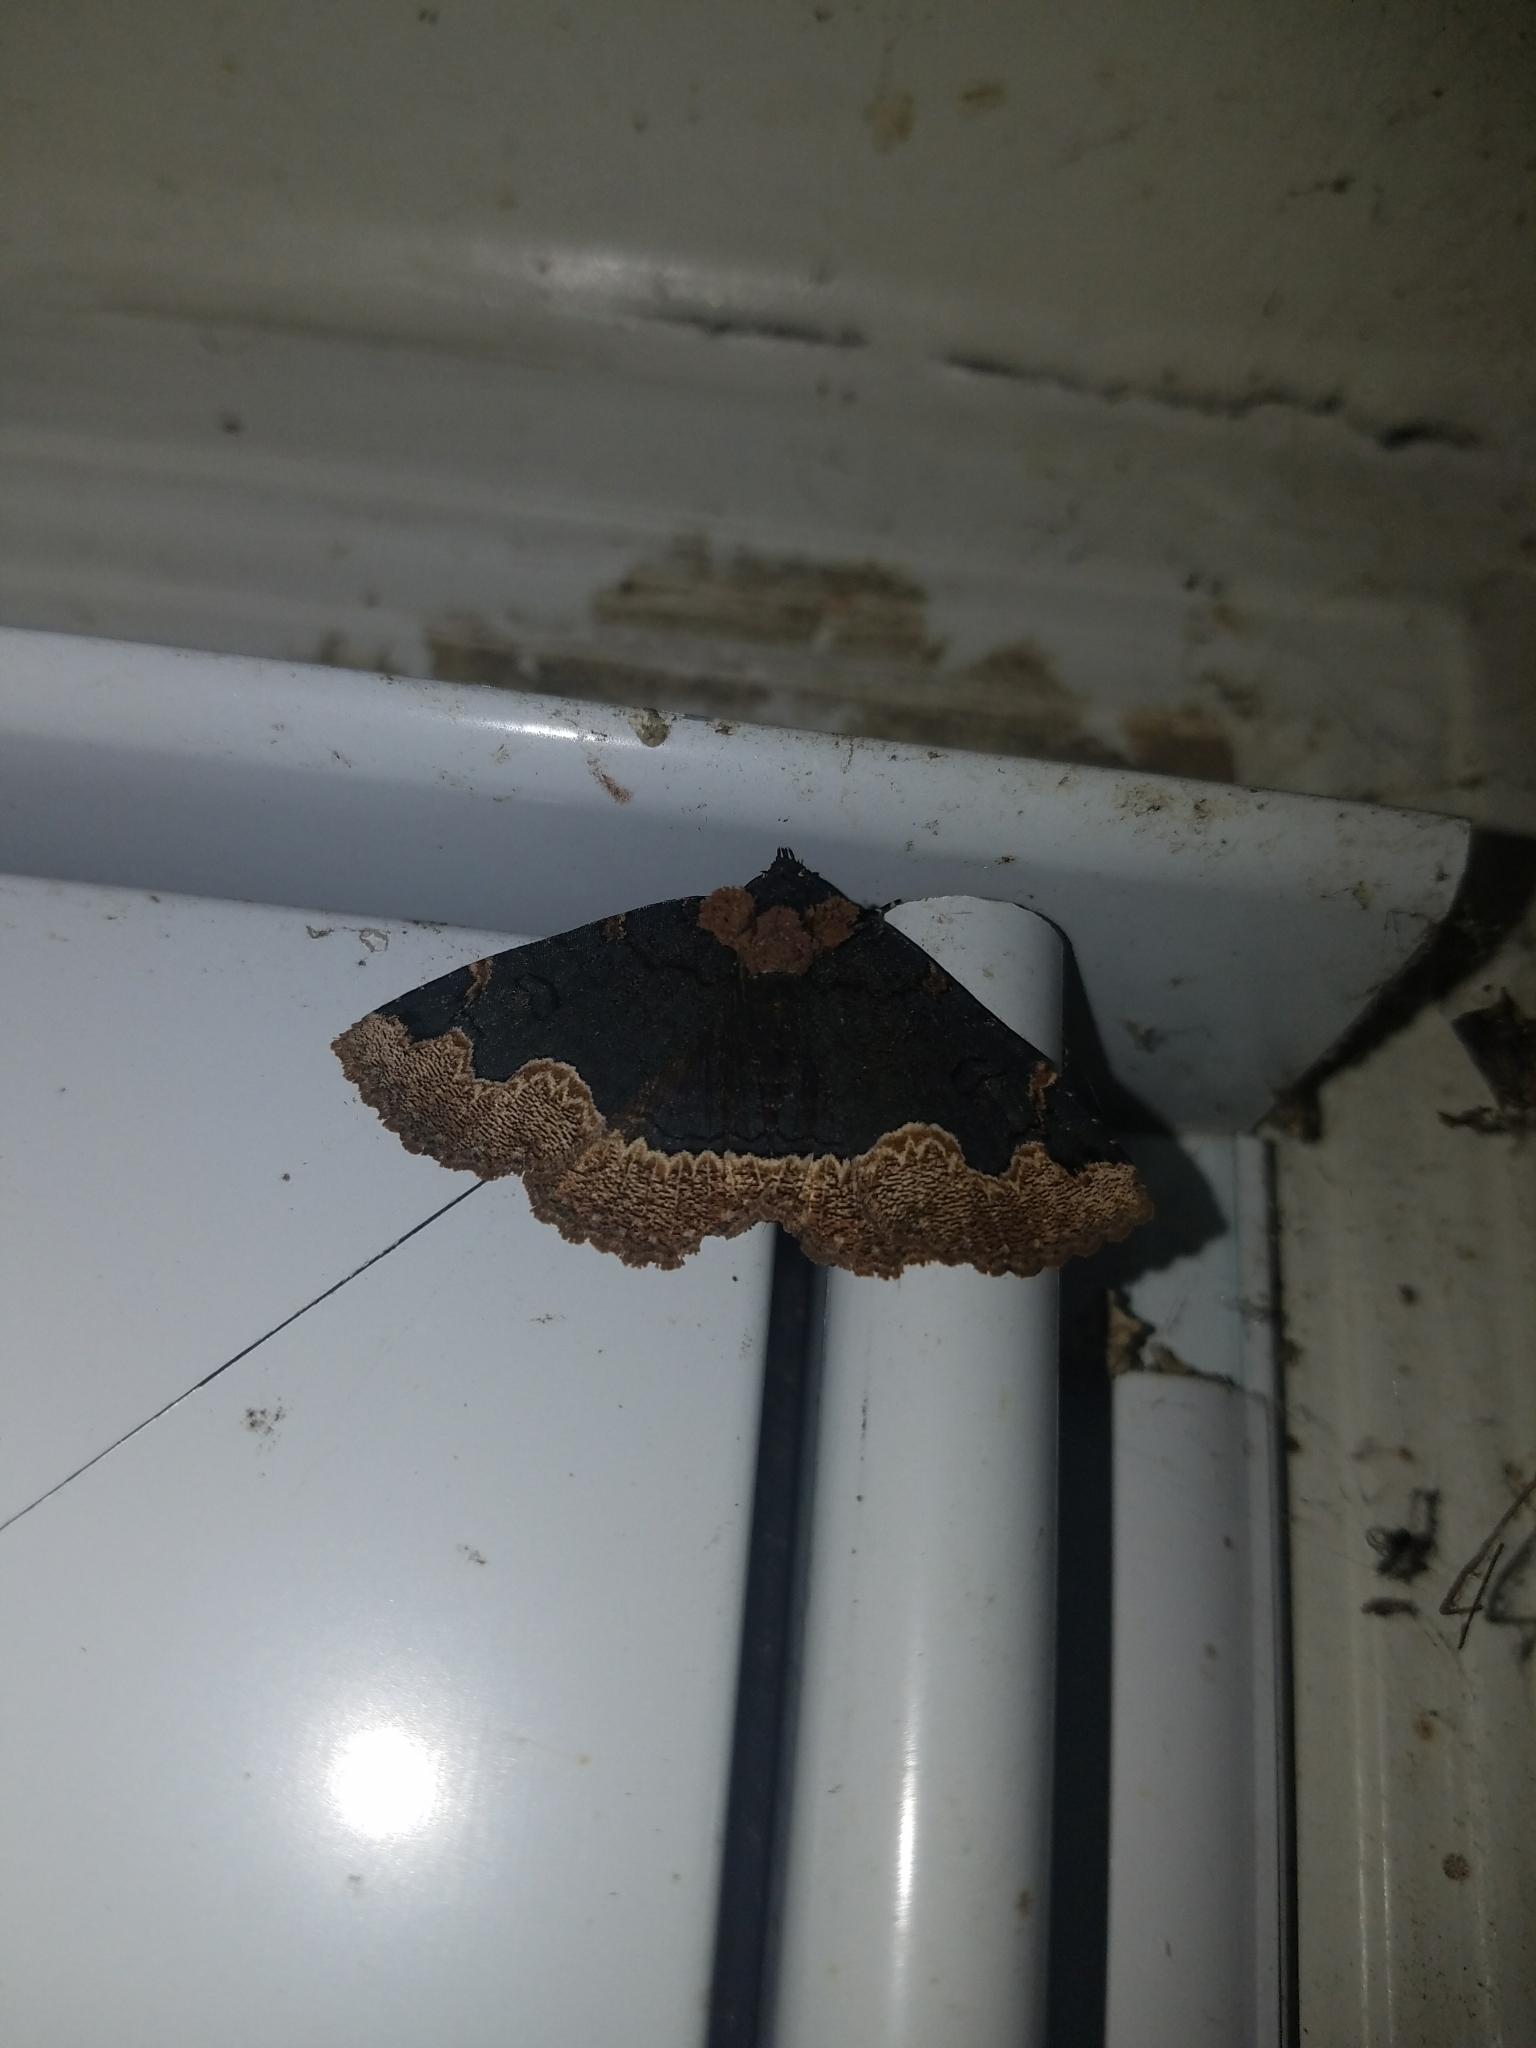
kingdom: Animalia
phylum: Arthropoda
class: Insecta
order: Lepidoptera
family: Erebidae
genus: Zale
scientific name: Zale horrida
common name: Horrid zale moth
